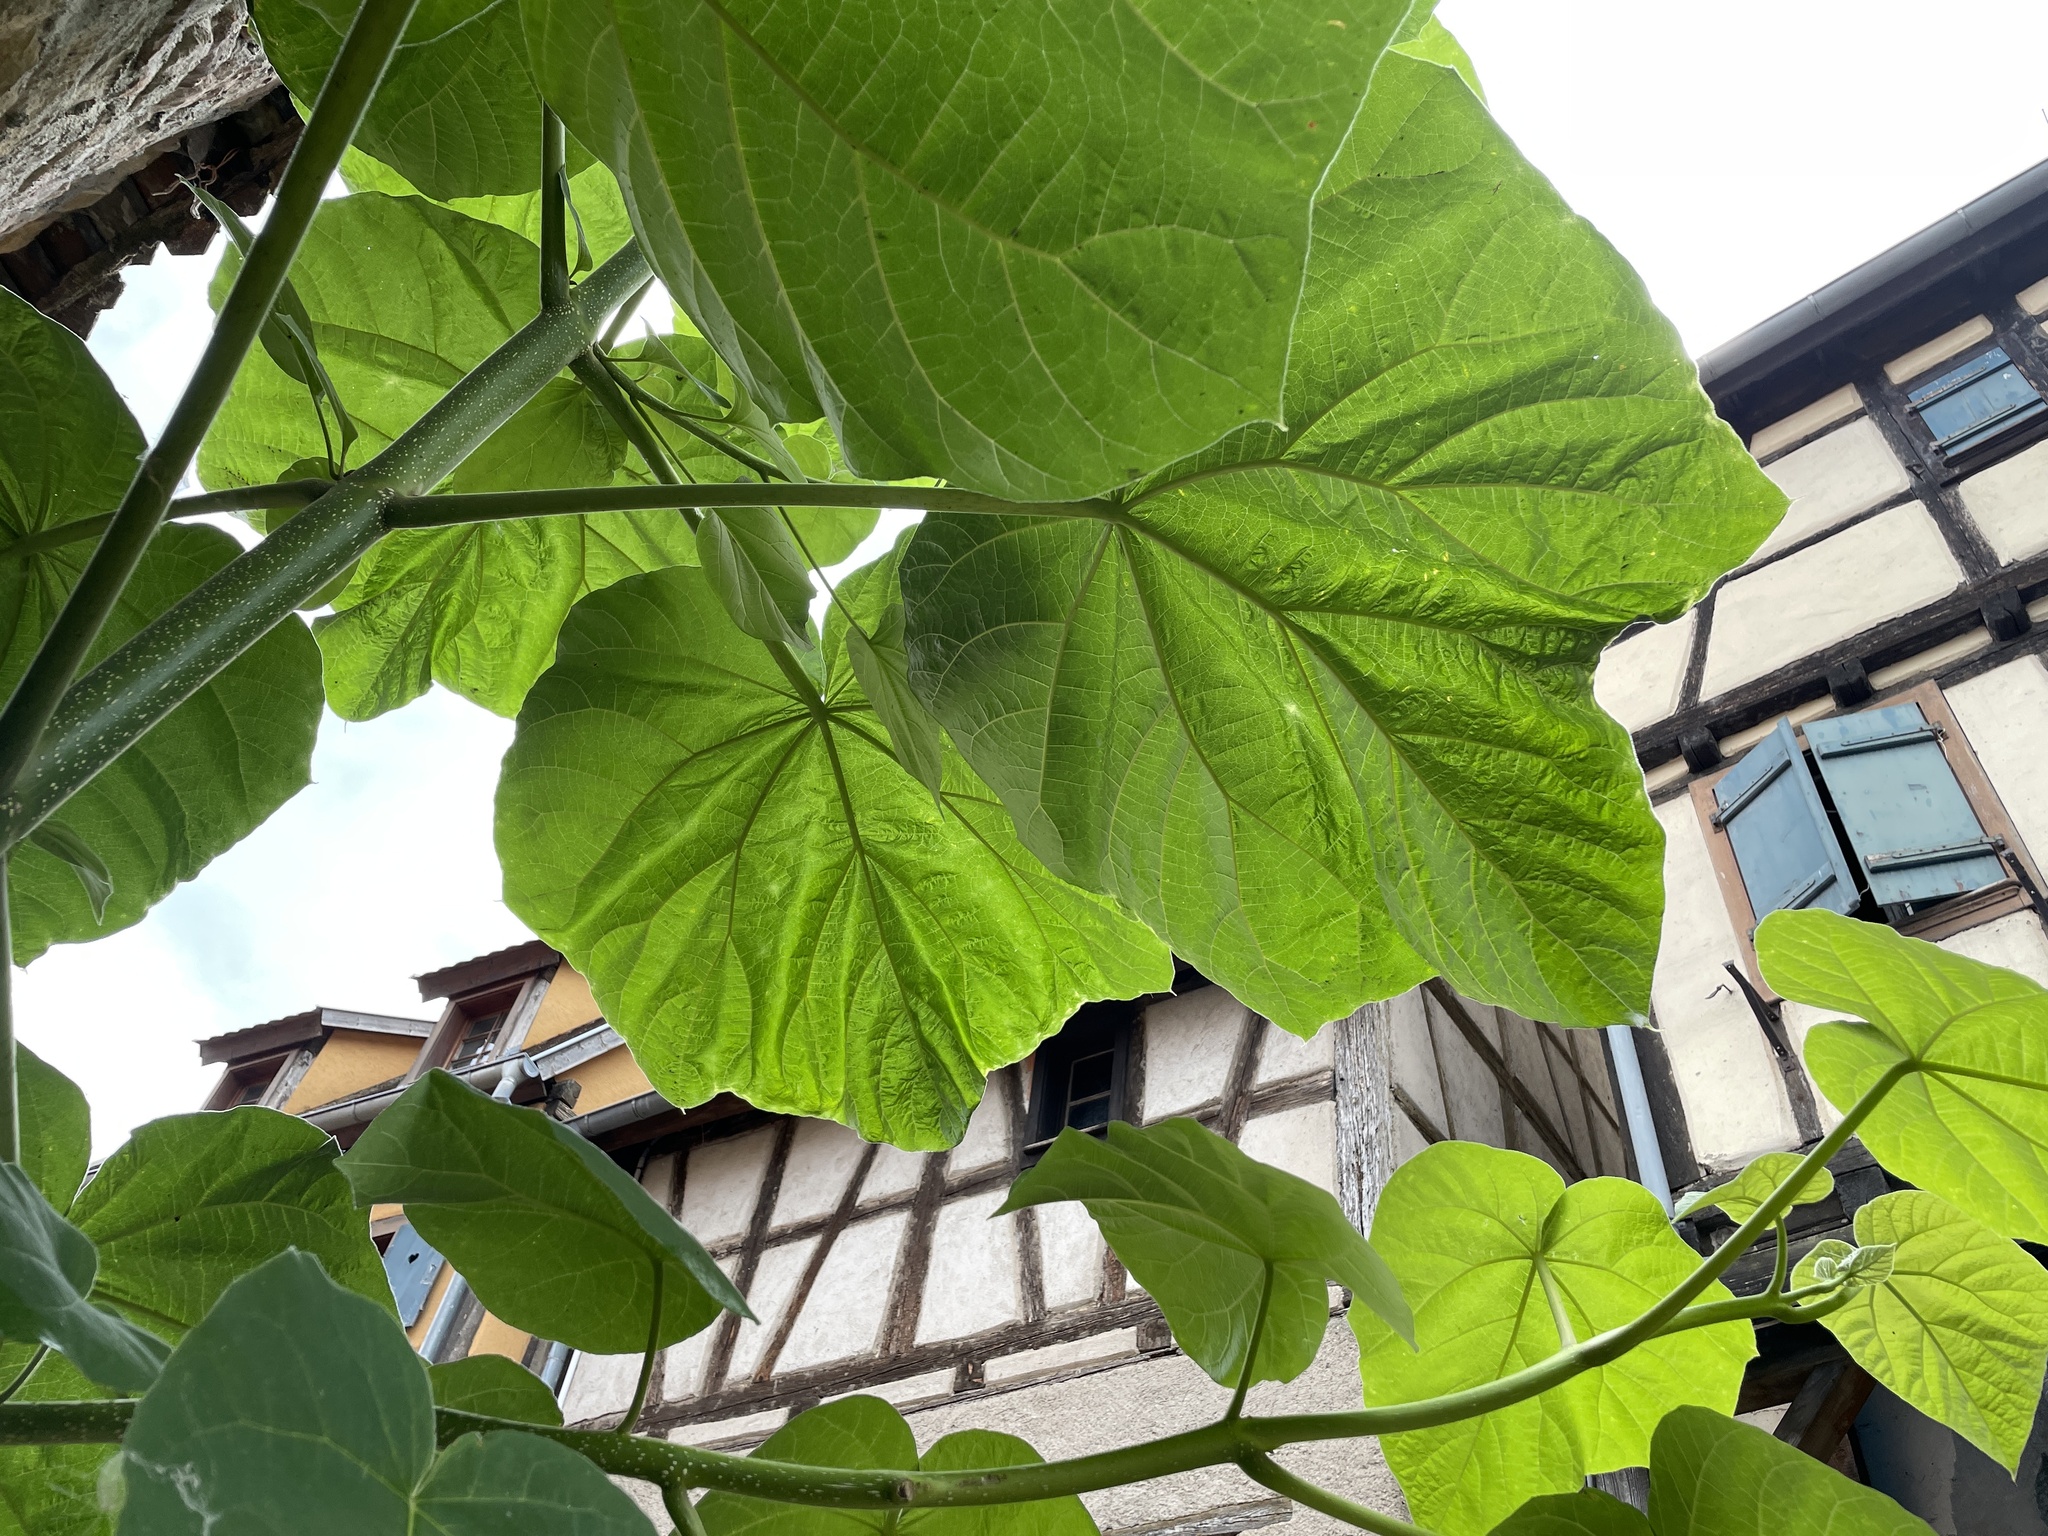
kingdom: Plantae
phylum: Tracheophyta
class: Magnoliopsida
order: Lamiales
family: Paulowniaceae
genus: Paulownia
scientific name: Paulownia tomentosa
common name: Foxglove-tree
